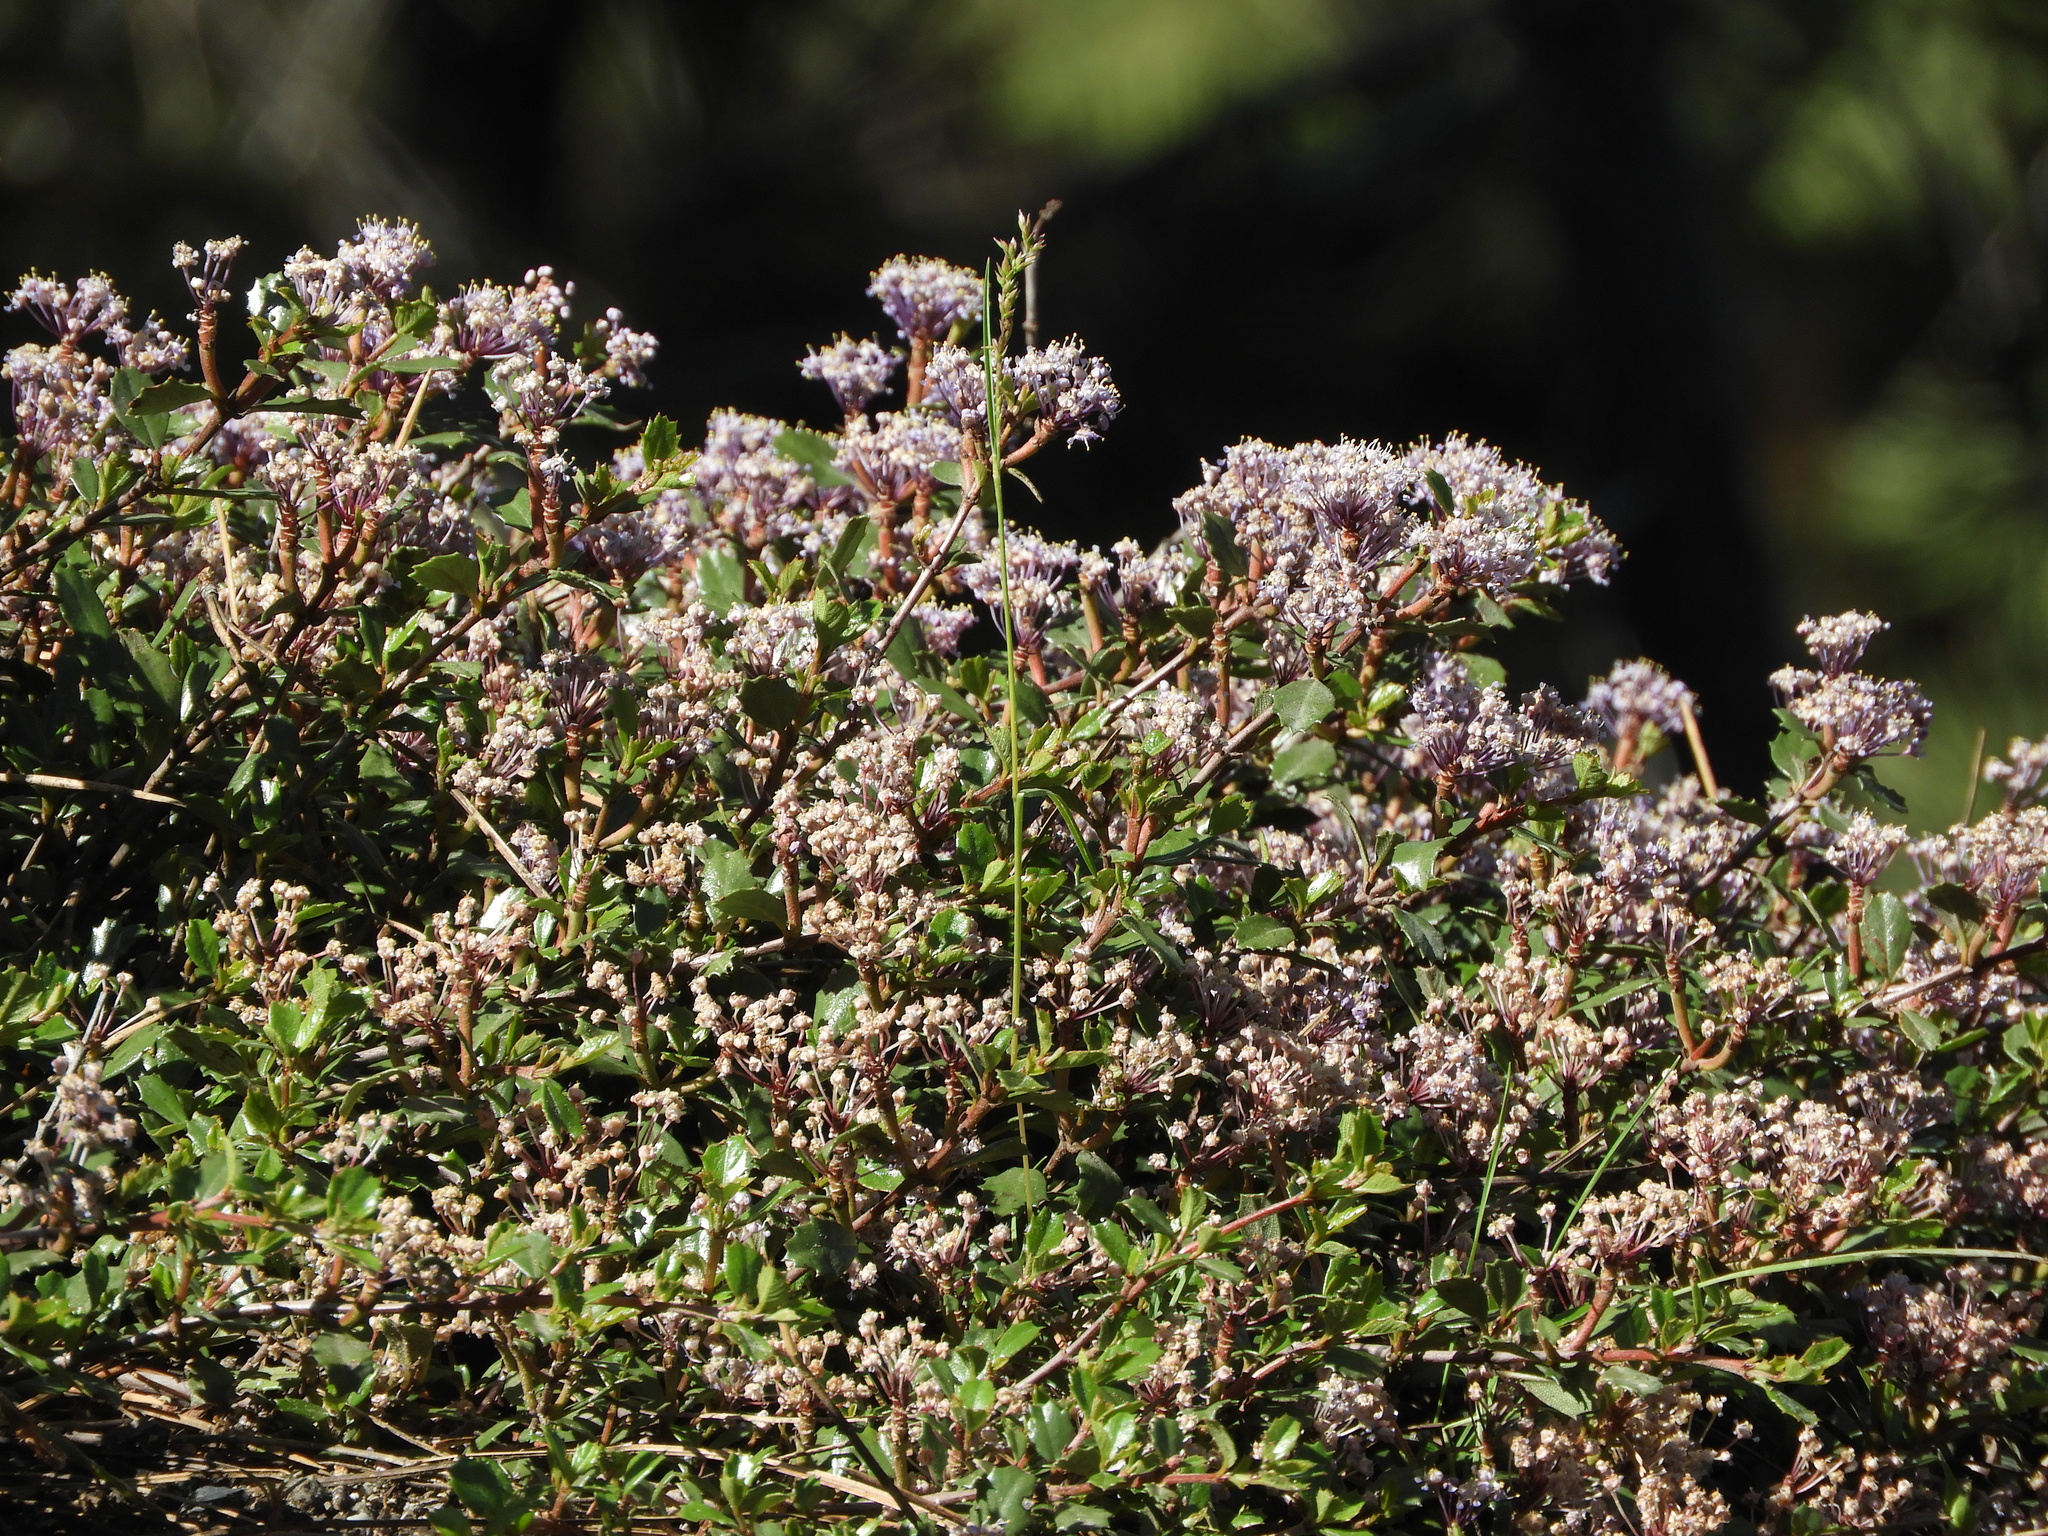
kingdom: Plantae
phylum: Tracheophyta
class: Magnoliopsida
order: Rosales
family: Rhamnaceae
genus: Ceanothus
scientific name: Ceanothus prostratus
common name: Mahala-mat
